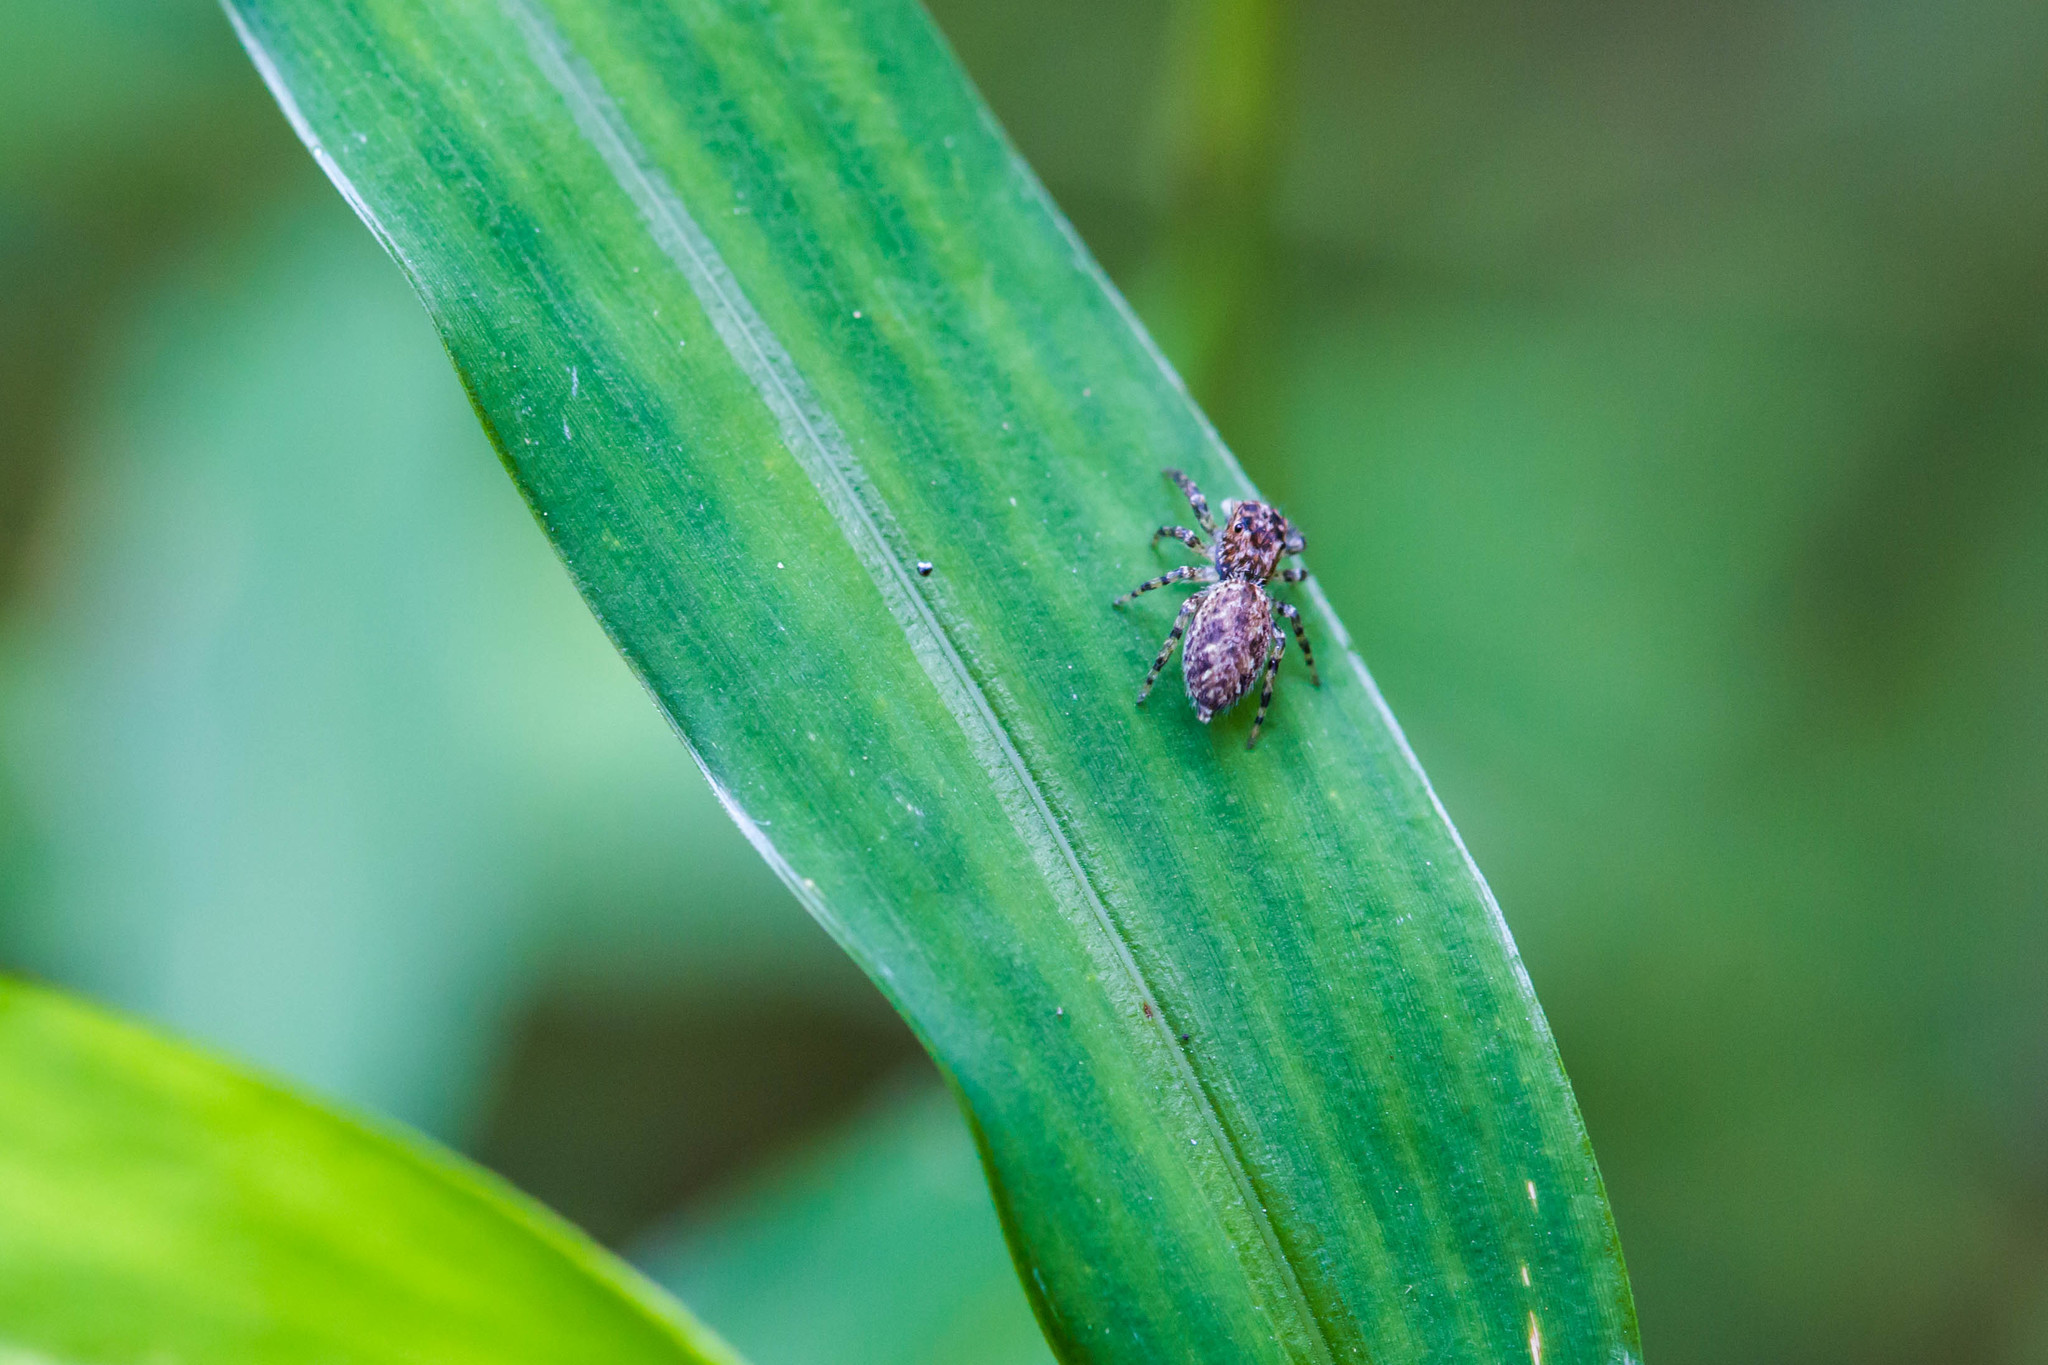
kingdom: Animalia
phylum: Arthropoda
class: Arachnida
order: Araneae
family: Salticidae
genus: Platycryptus
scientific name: Platycryptus undatus
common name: Tan jumping spider
